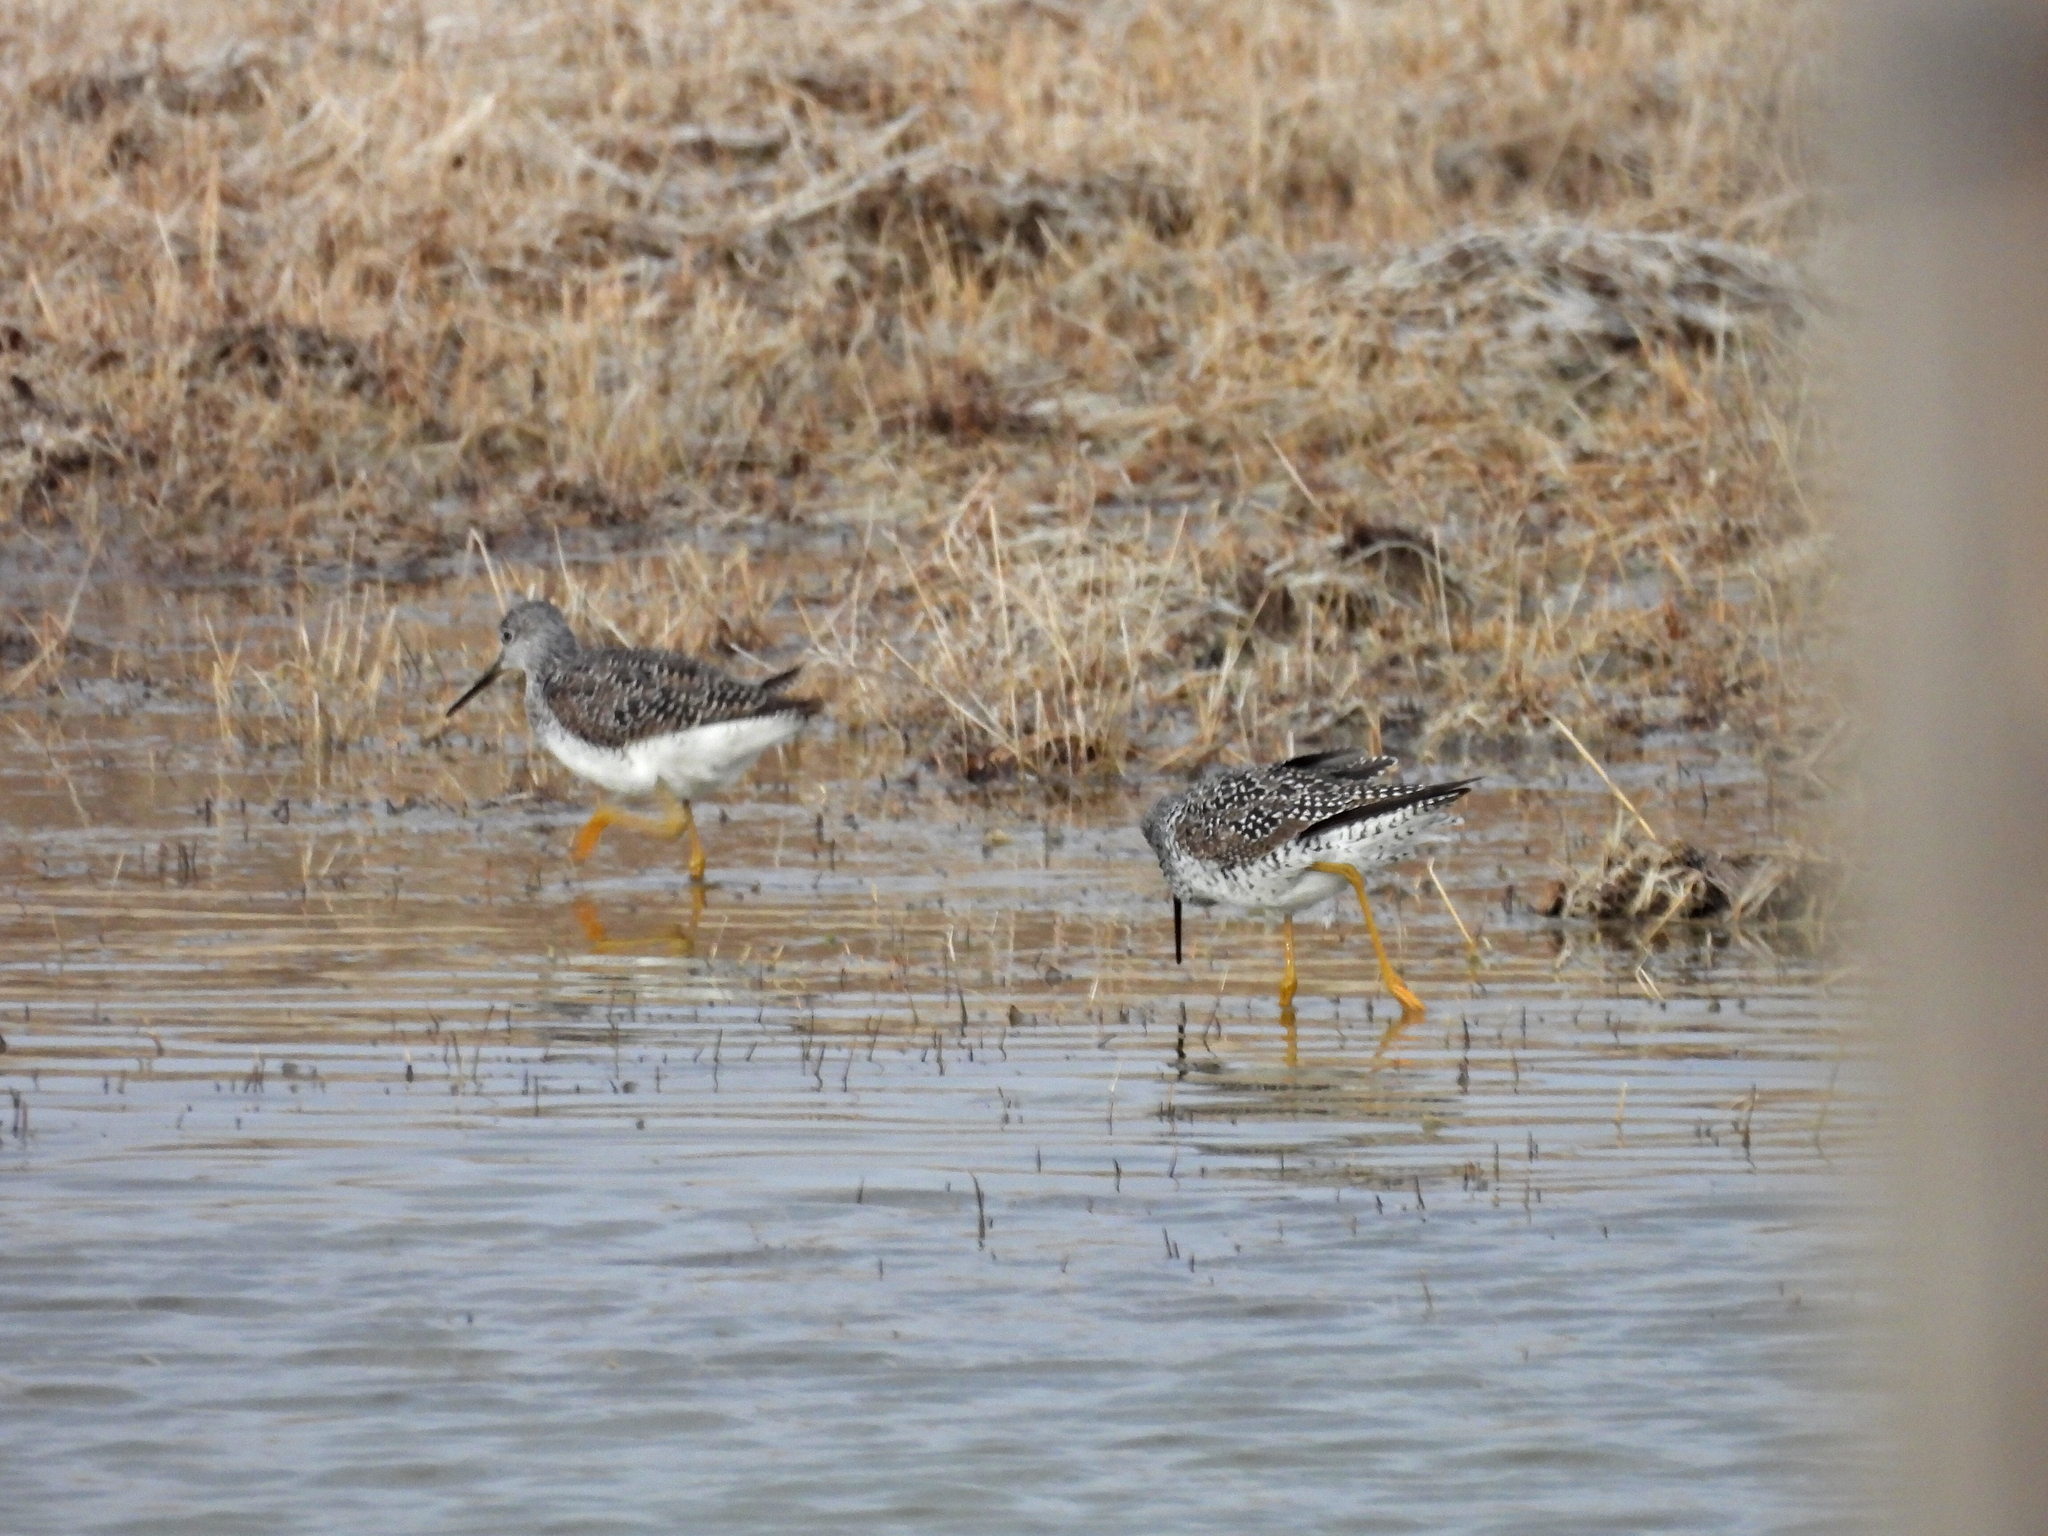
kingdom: Animalia
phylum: Chordata
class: Aves
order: Charadriiformes
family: Scolopacidae
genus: Tringa
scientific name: Tringa melanoleuca
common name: Greater yellowlegs
